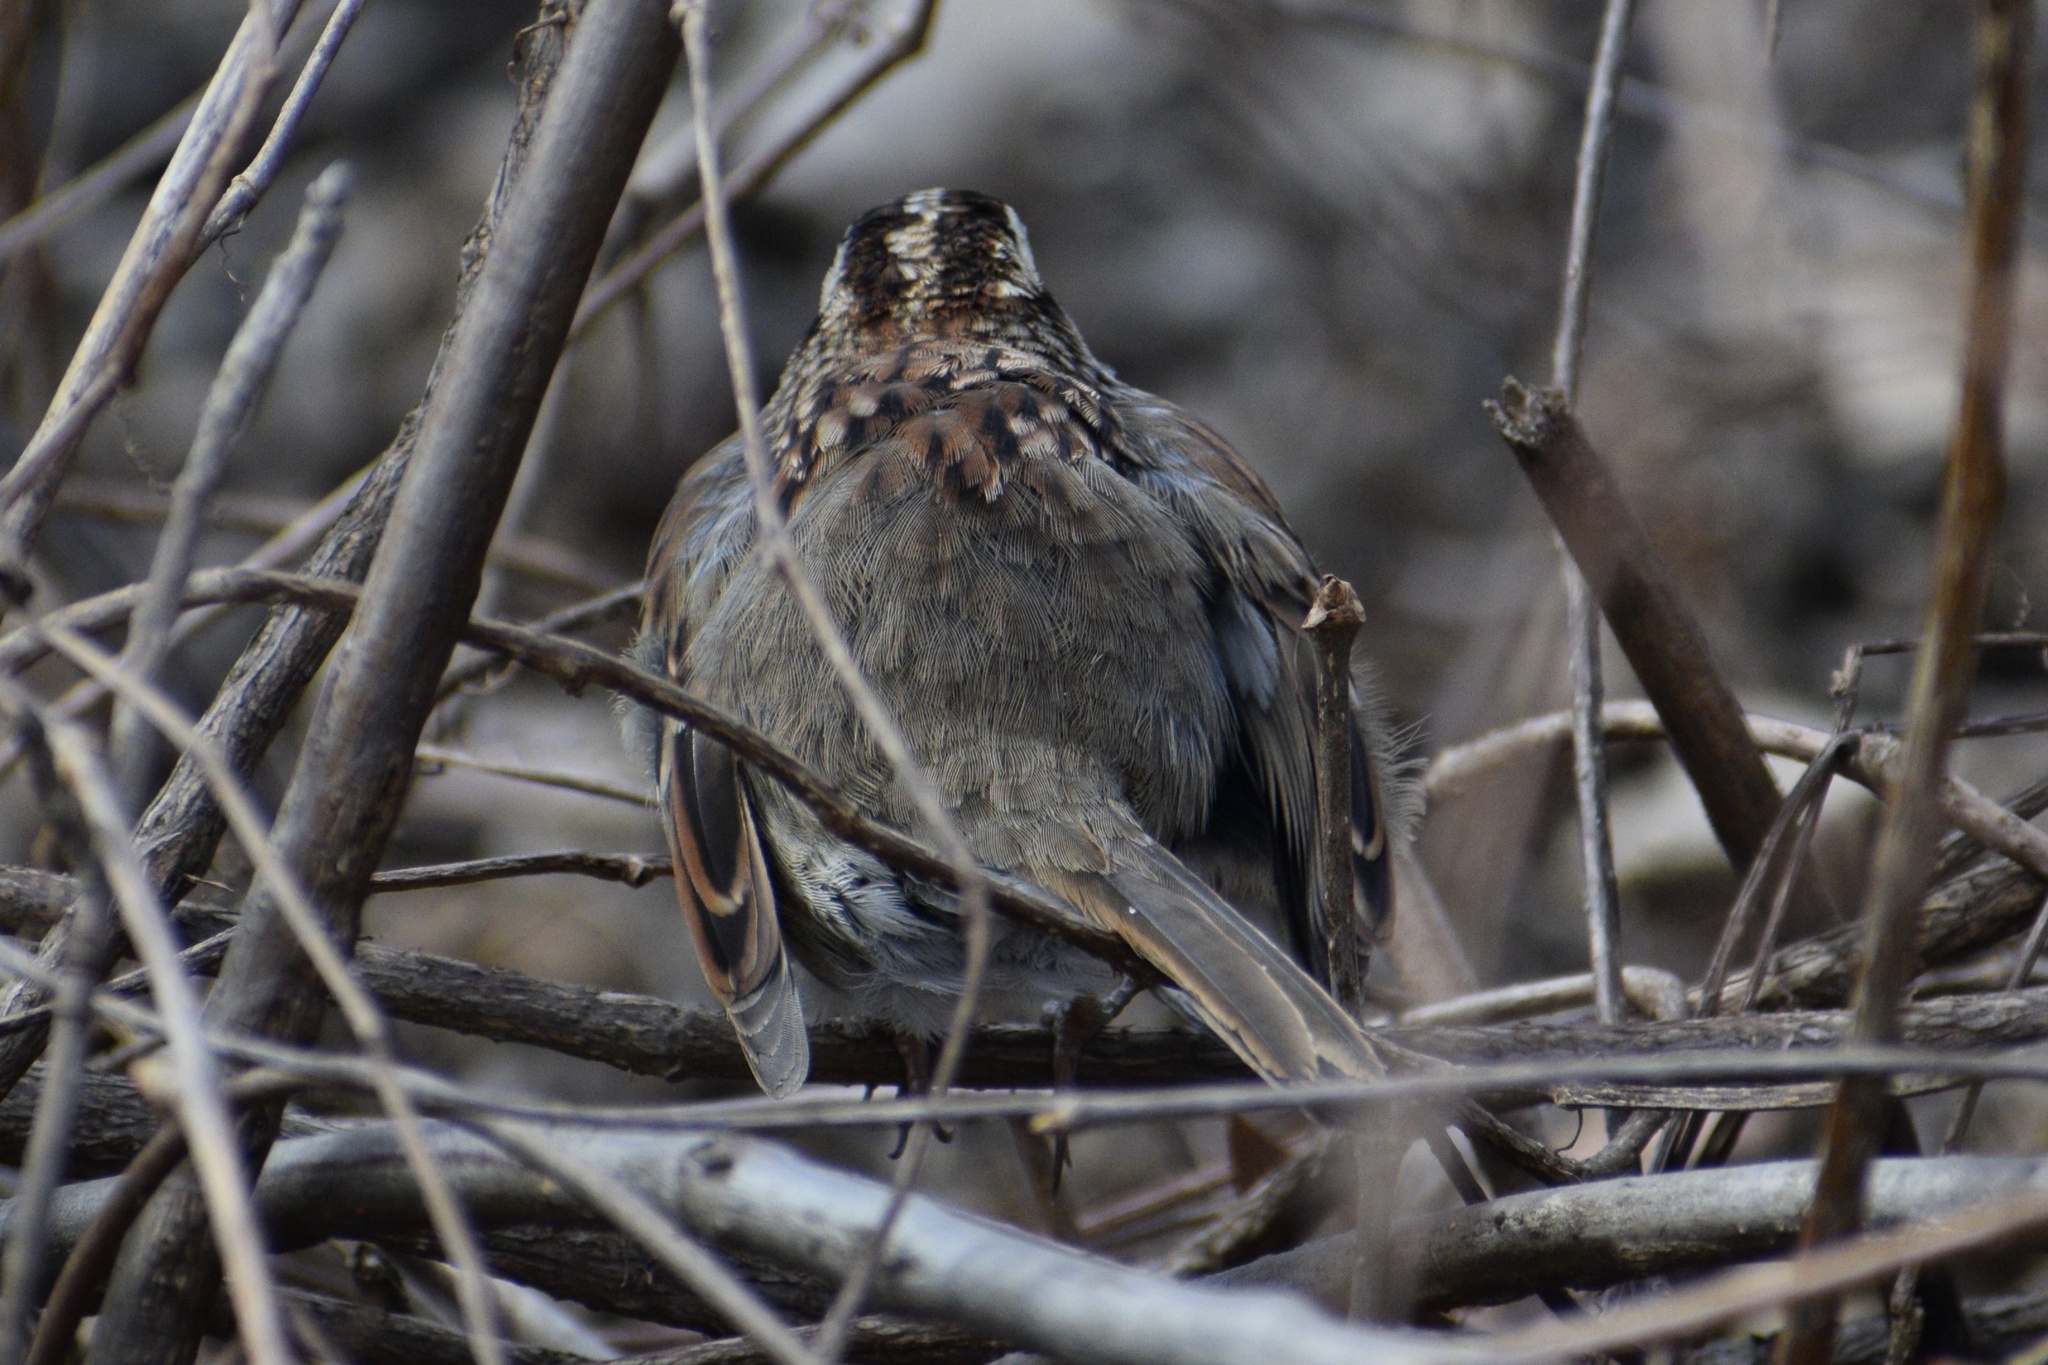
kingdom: Animalia
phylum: Chordata
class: Aves
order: Passeriformes
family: Passerellidae
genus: Zonotrichia
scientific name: Zonotrichia albicollis
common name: White-throated sparrow
